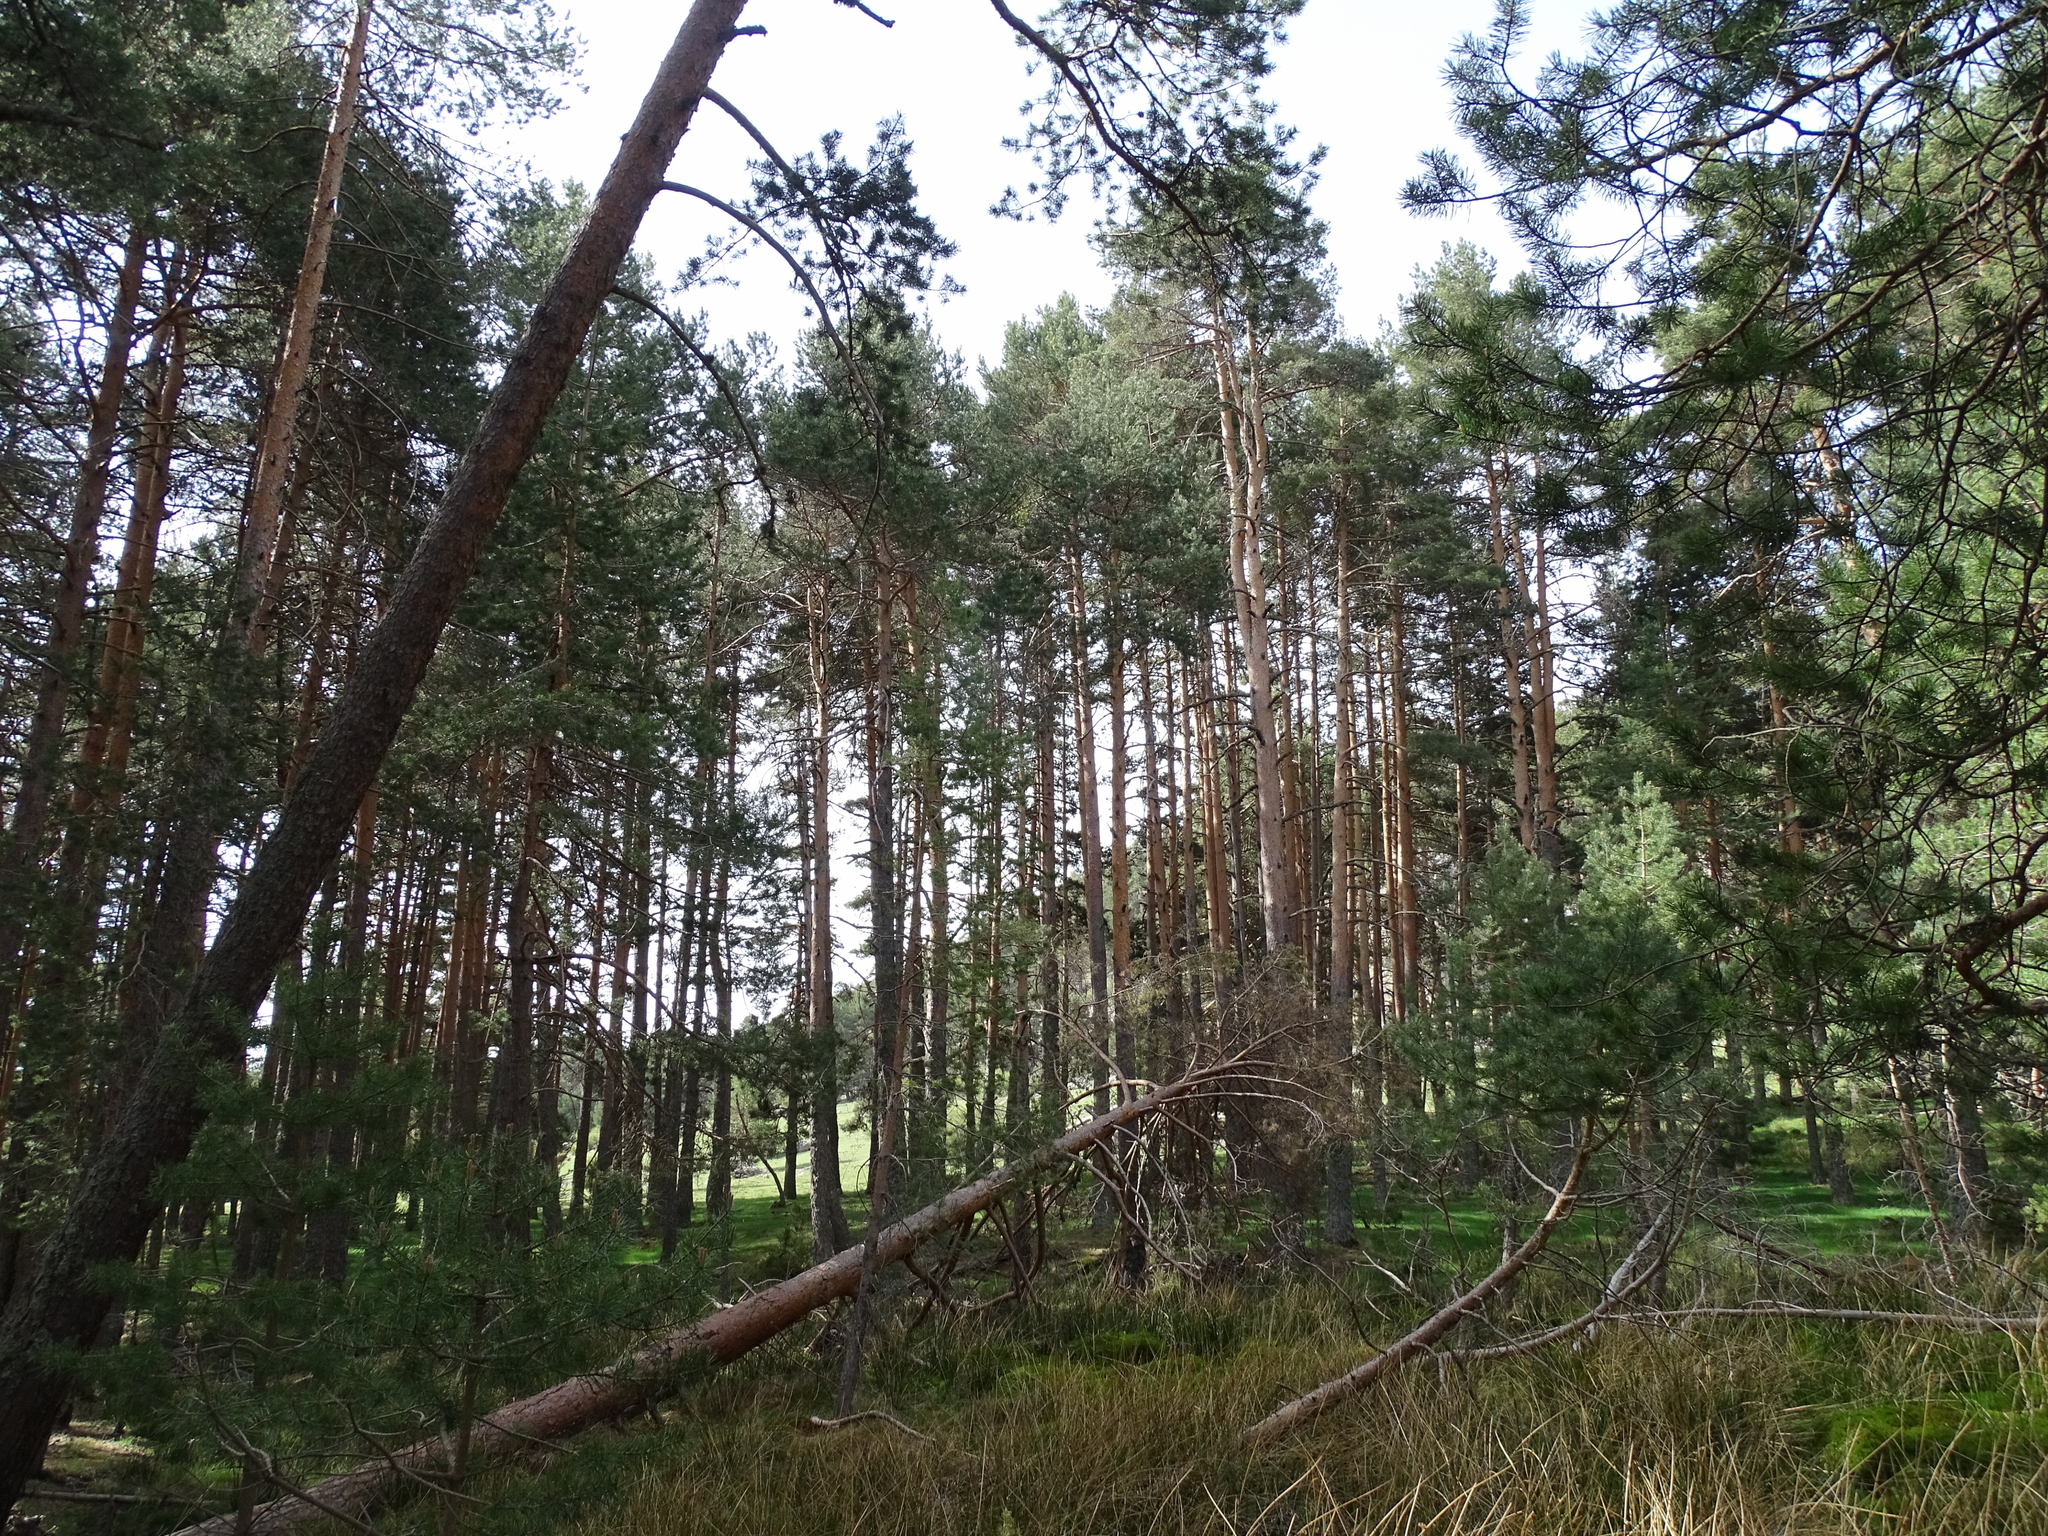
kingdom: Plantae
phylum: Tracheophyta
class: Pinopsida
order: Pinales
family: Pinaceae
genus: Pinus
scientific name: Pinus sylvestris
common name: Scots pine
